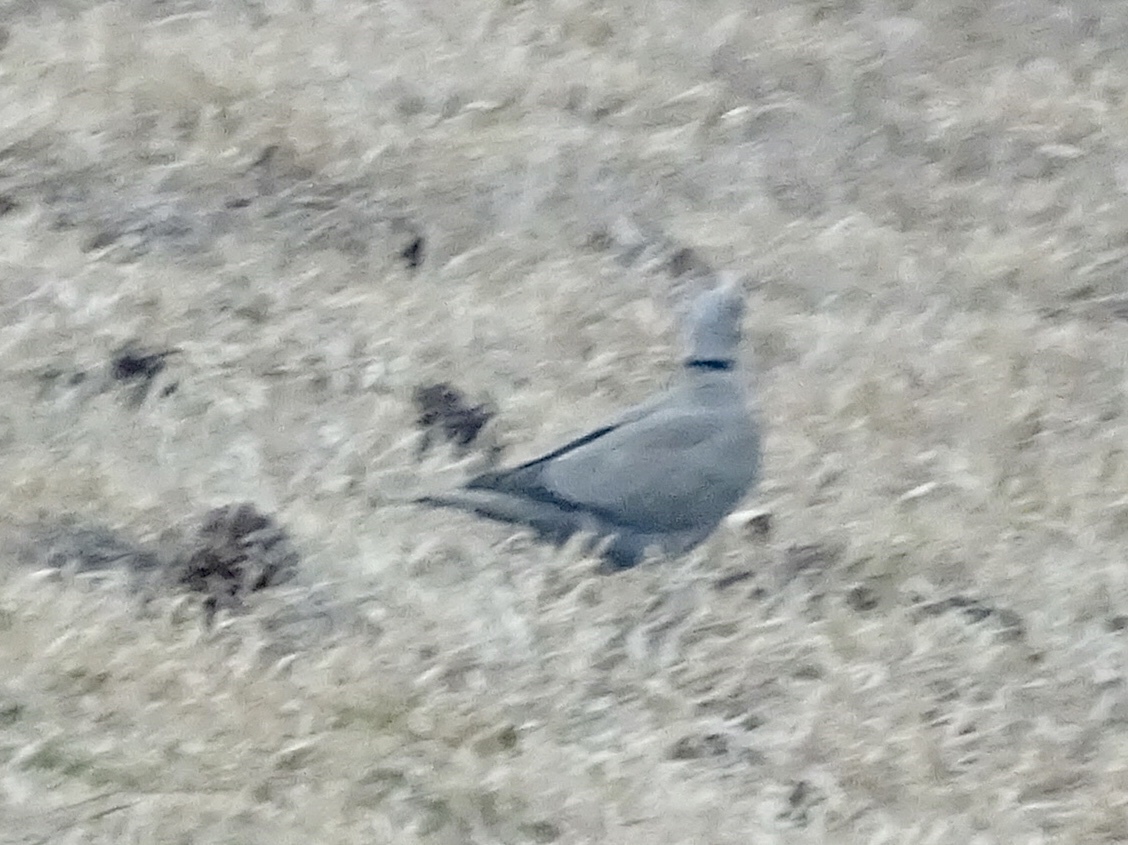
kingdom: Animalia
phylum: Chordata
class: Aves
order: Columbiformes
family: Columbidae
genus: Streptopelia
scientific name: Streptopelia decaocto
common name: Eurasian collared dove
